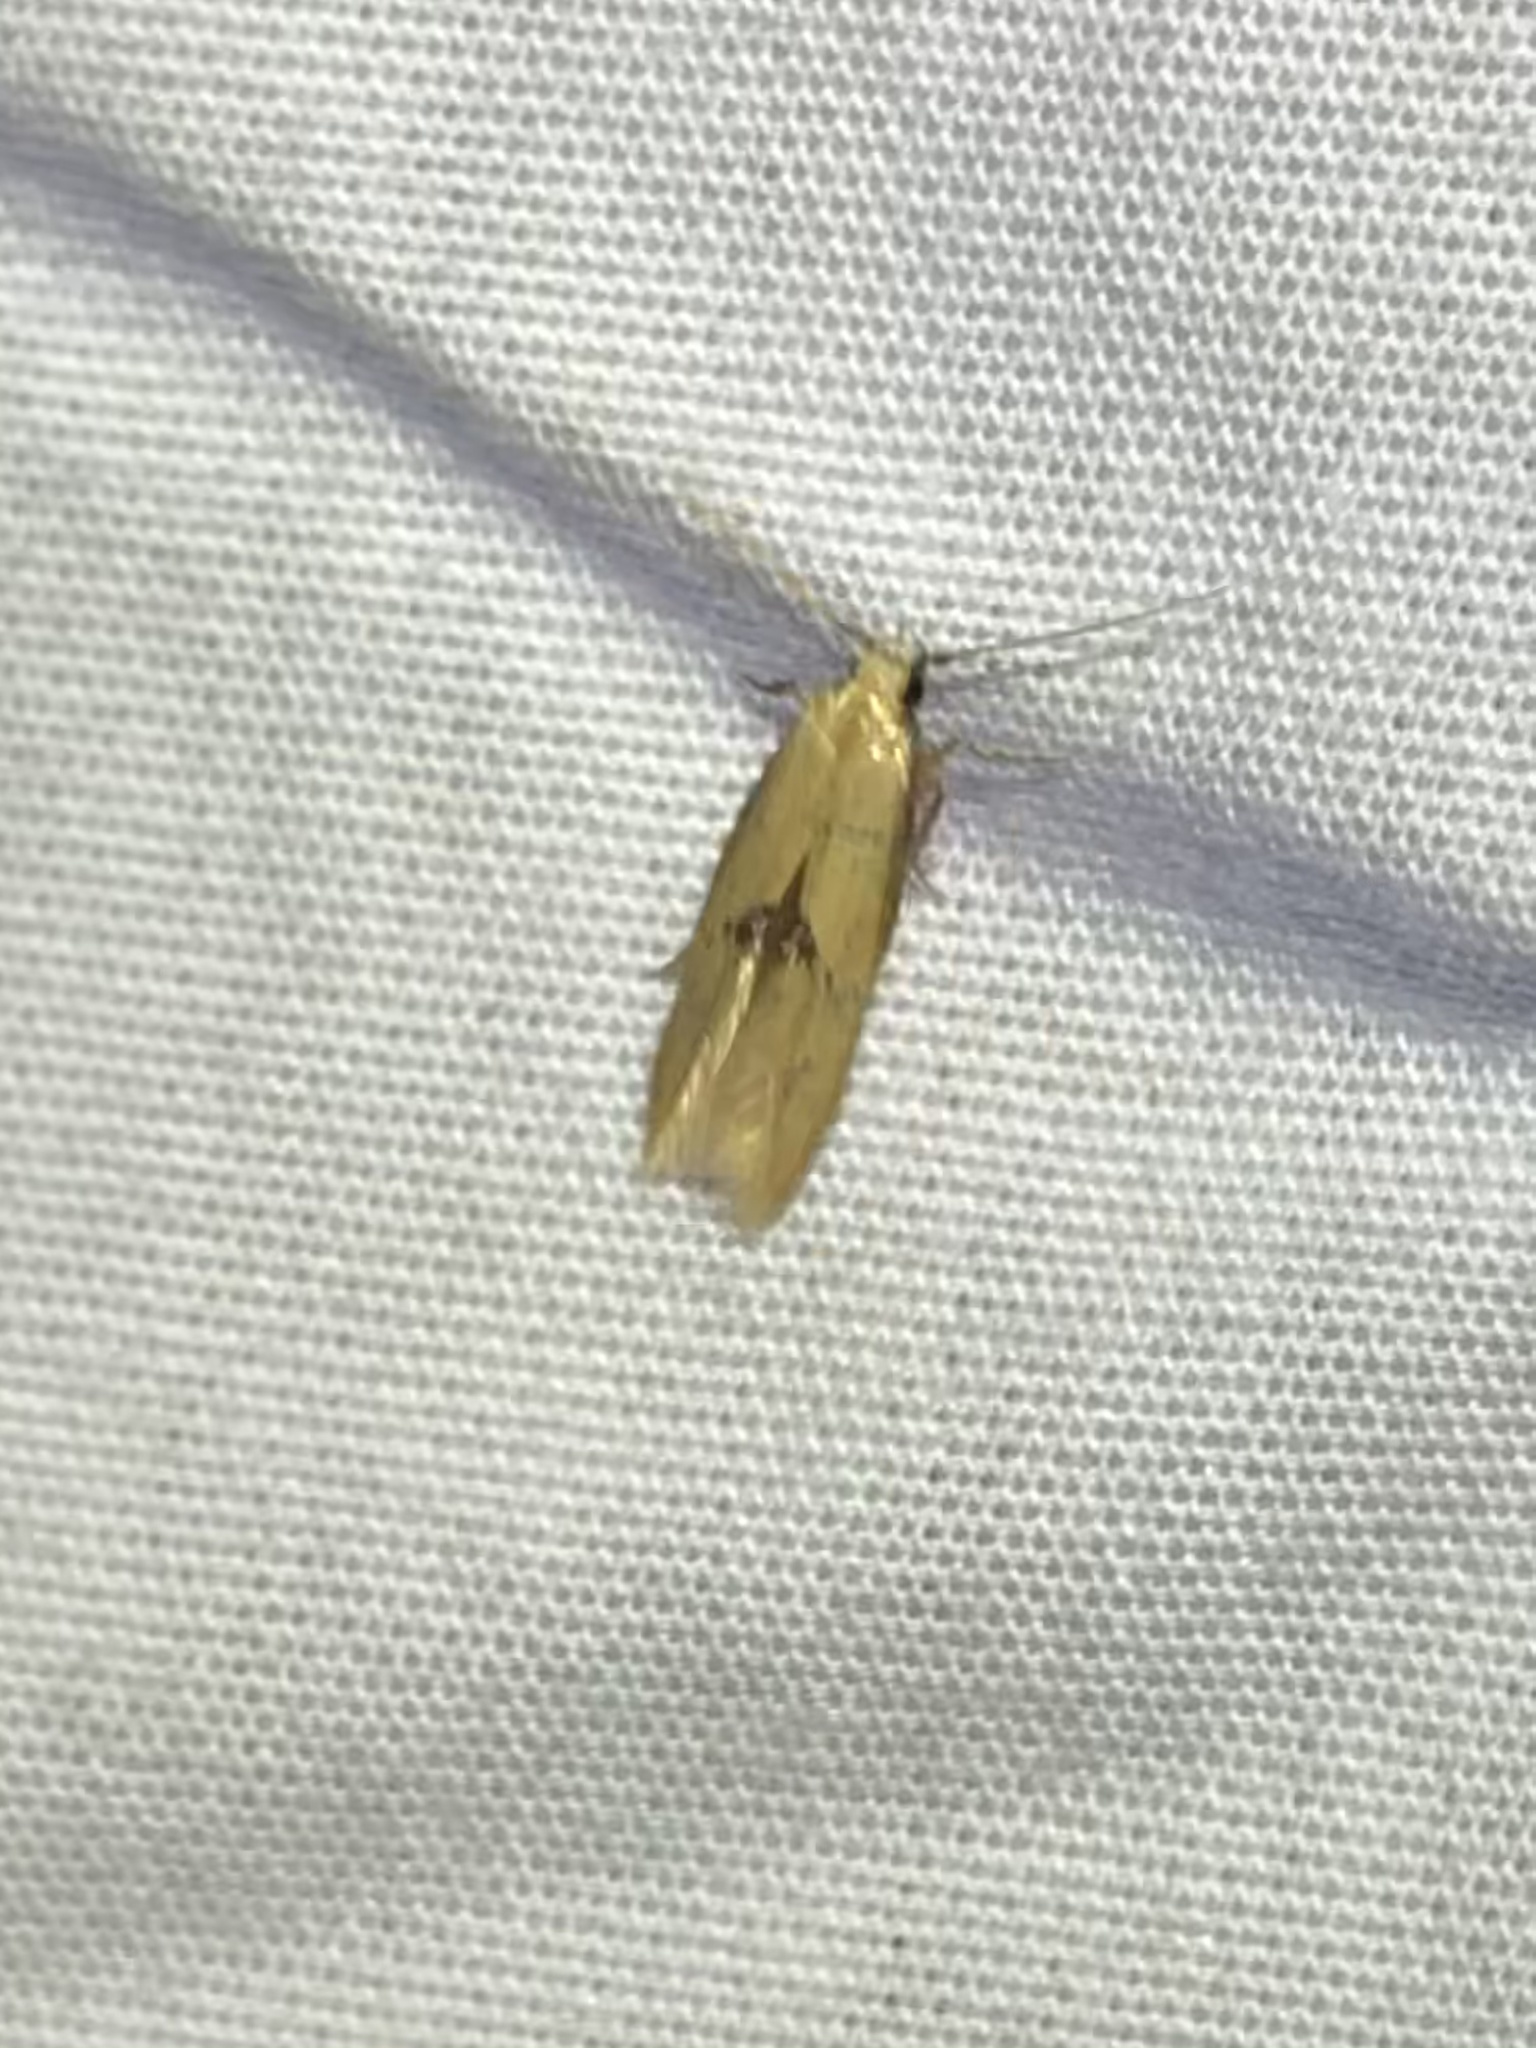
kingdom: Animalia
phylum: Arthropoda
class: Insecta
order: Lepidoptera
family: Tineidae
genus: Opogona
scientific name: Opogona arizonensis
